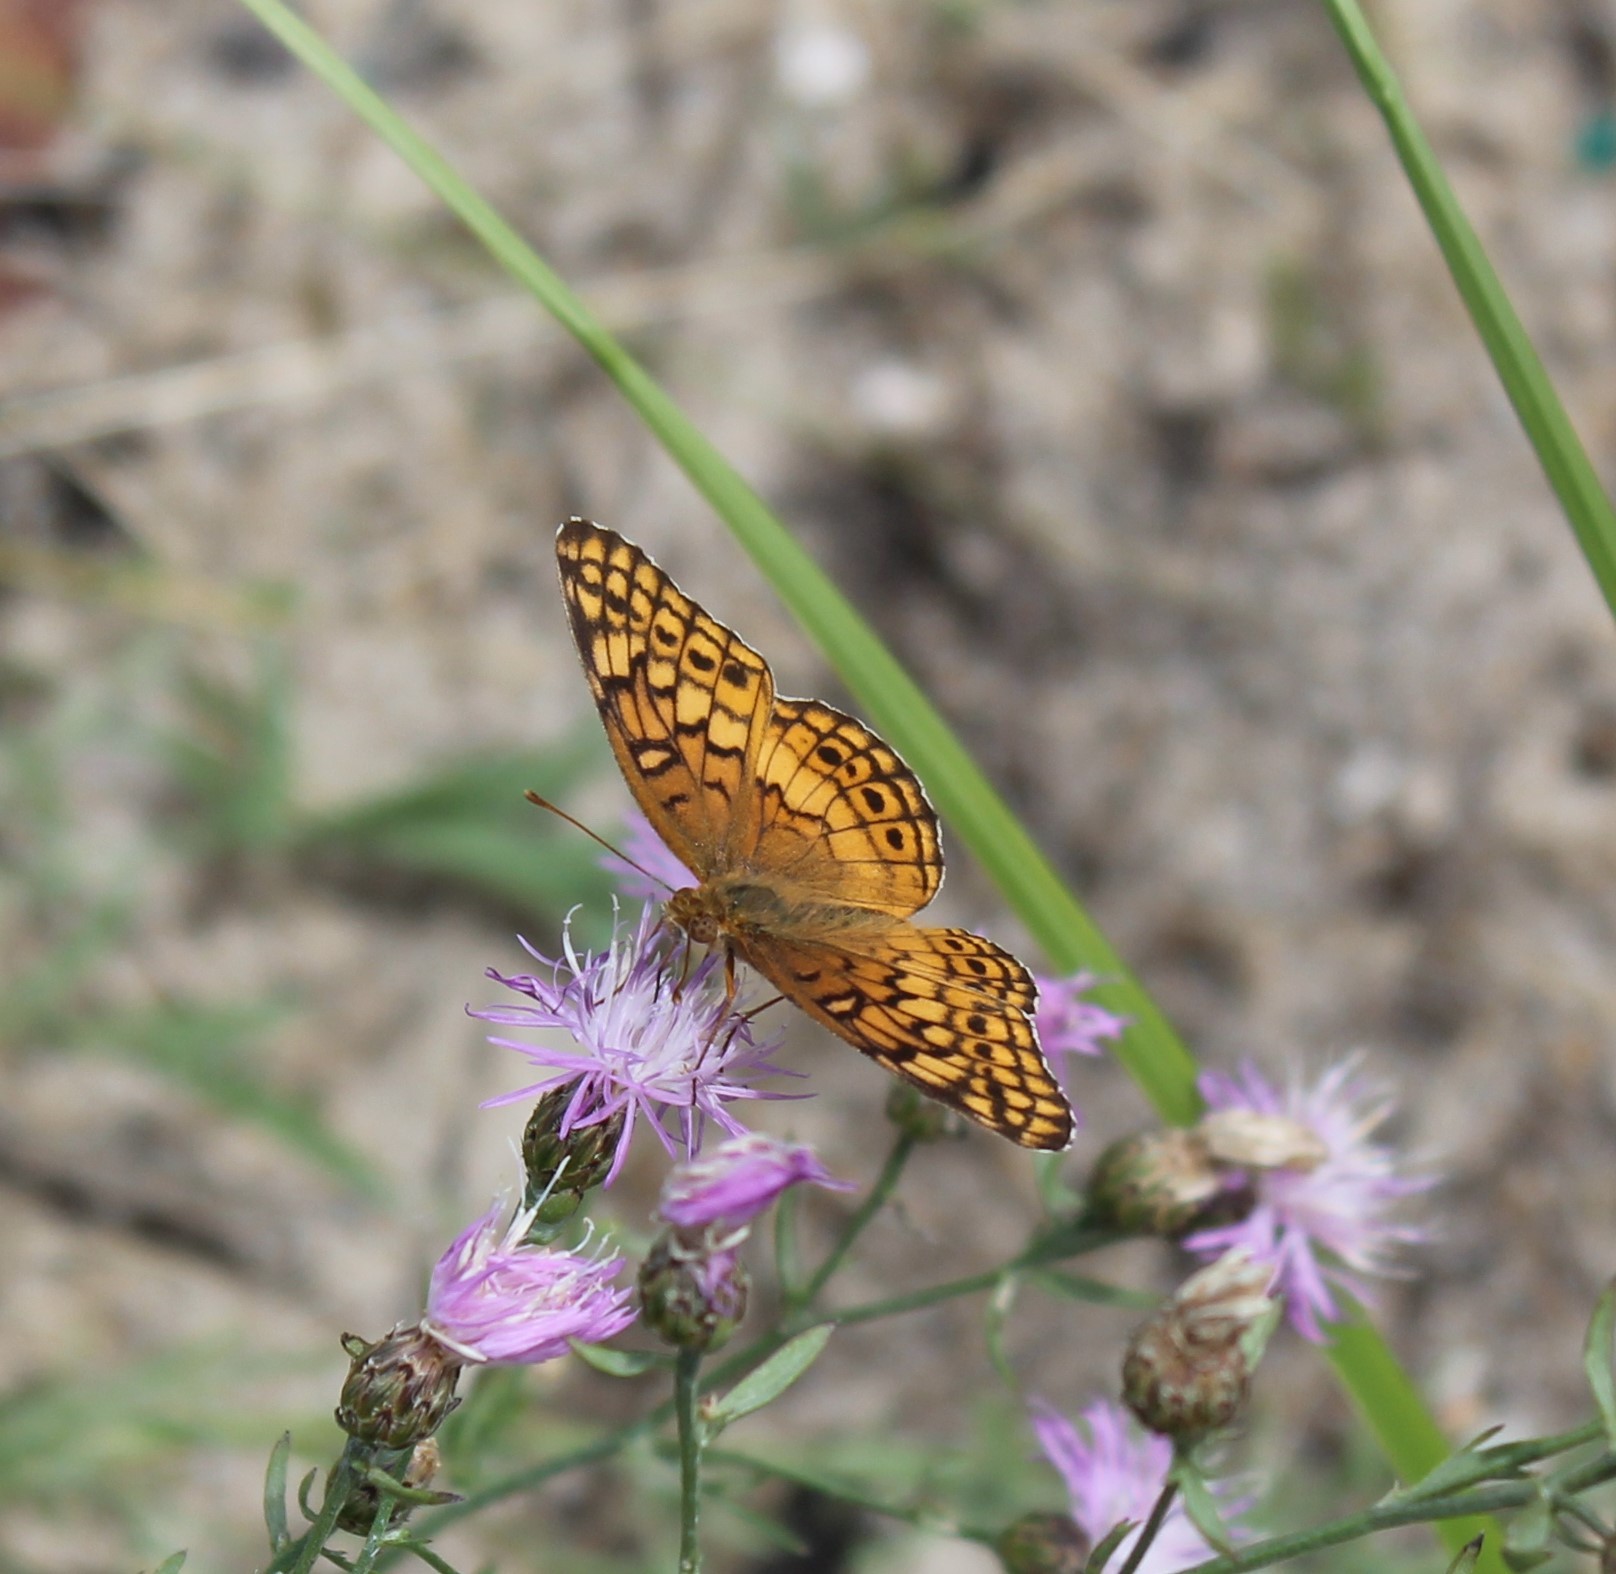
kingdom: Animalia
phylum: Arthropoda
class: Insecta
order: Lepidoptera
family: Nymphalidae
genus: Euptoieta
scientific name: Euptoieta claudia
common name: Variegated fritillary
